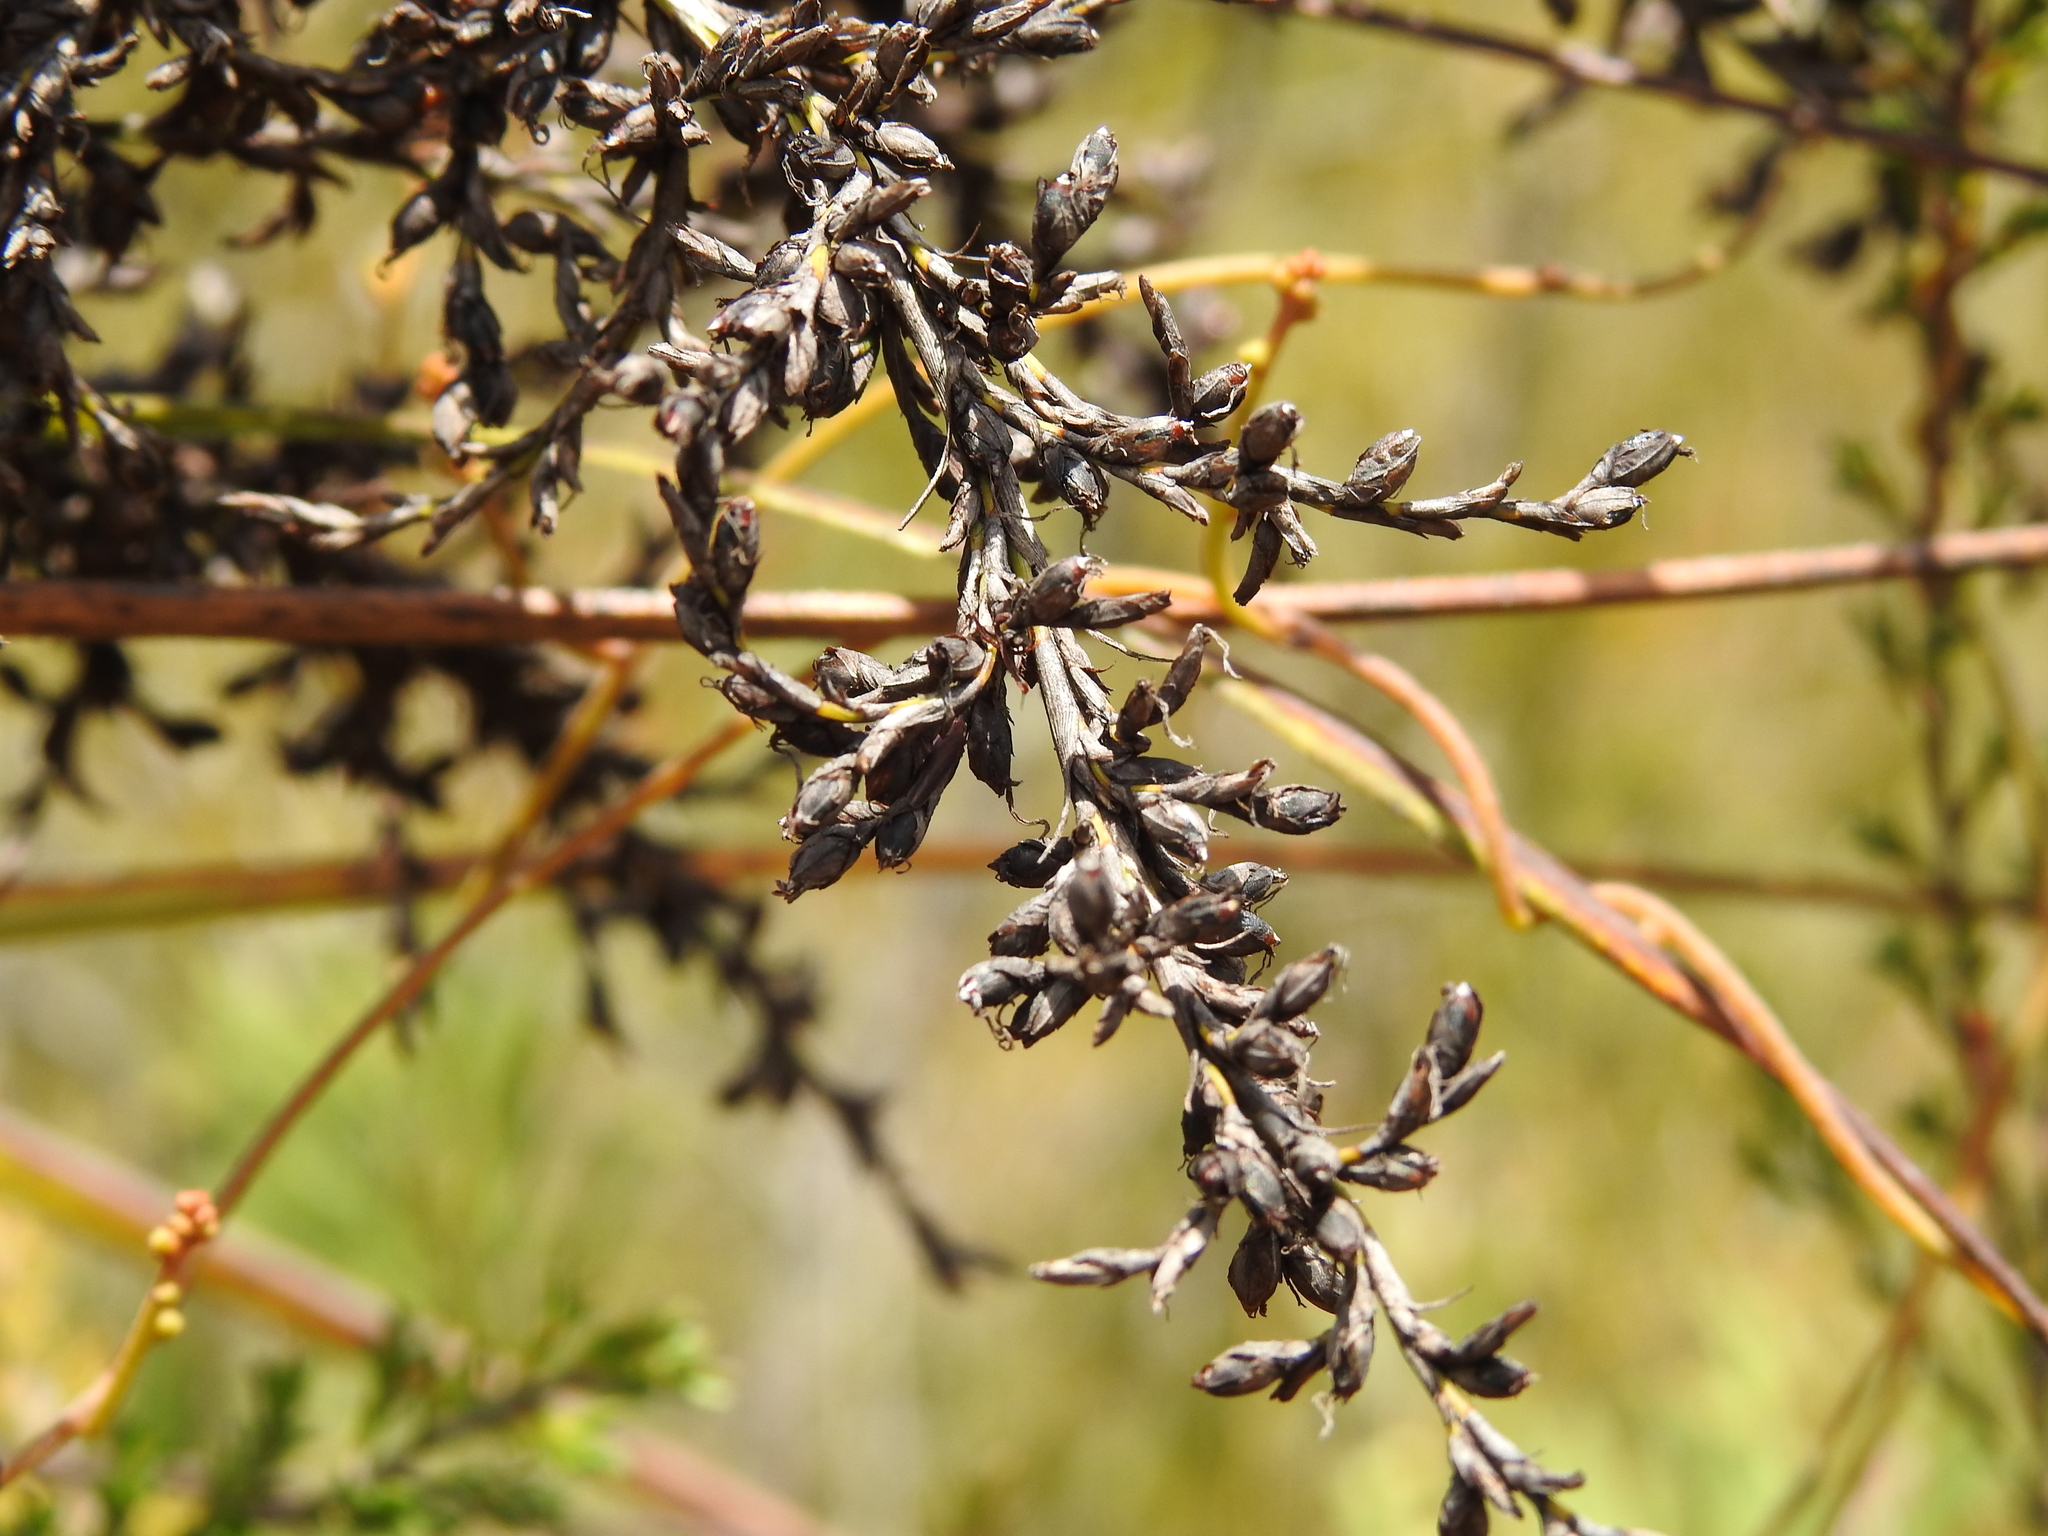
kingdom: Plantae
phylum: Tracheophyta
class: Liliopsida
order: Poales
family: Cyperaceae
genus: Gahnia
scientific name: Gahnia sieberiana
